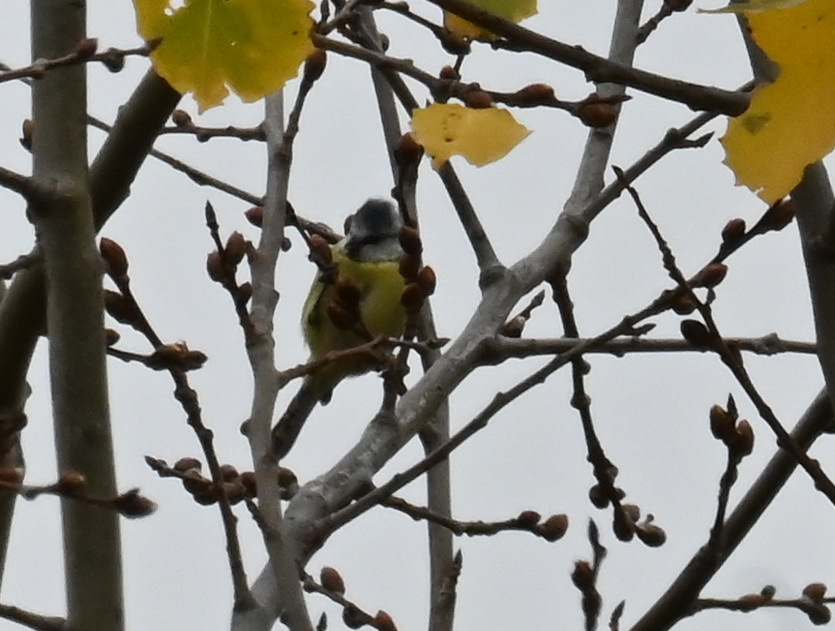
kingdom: Animalia
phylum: Chordata
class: Aves
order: Passeriformes
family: Paridae
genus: Cyanistes
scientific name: Cyanistes caeruleus
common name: Eurasian blue tit
